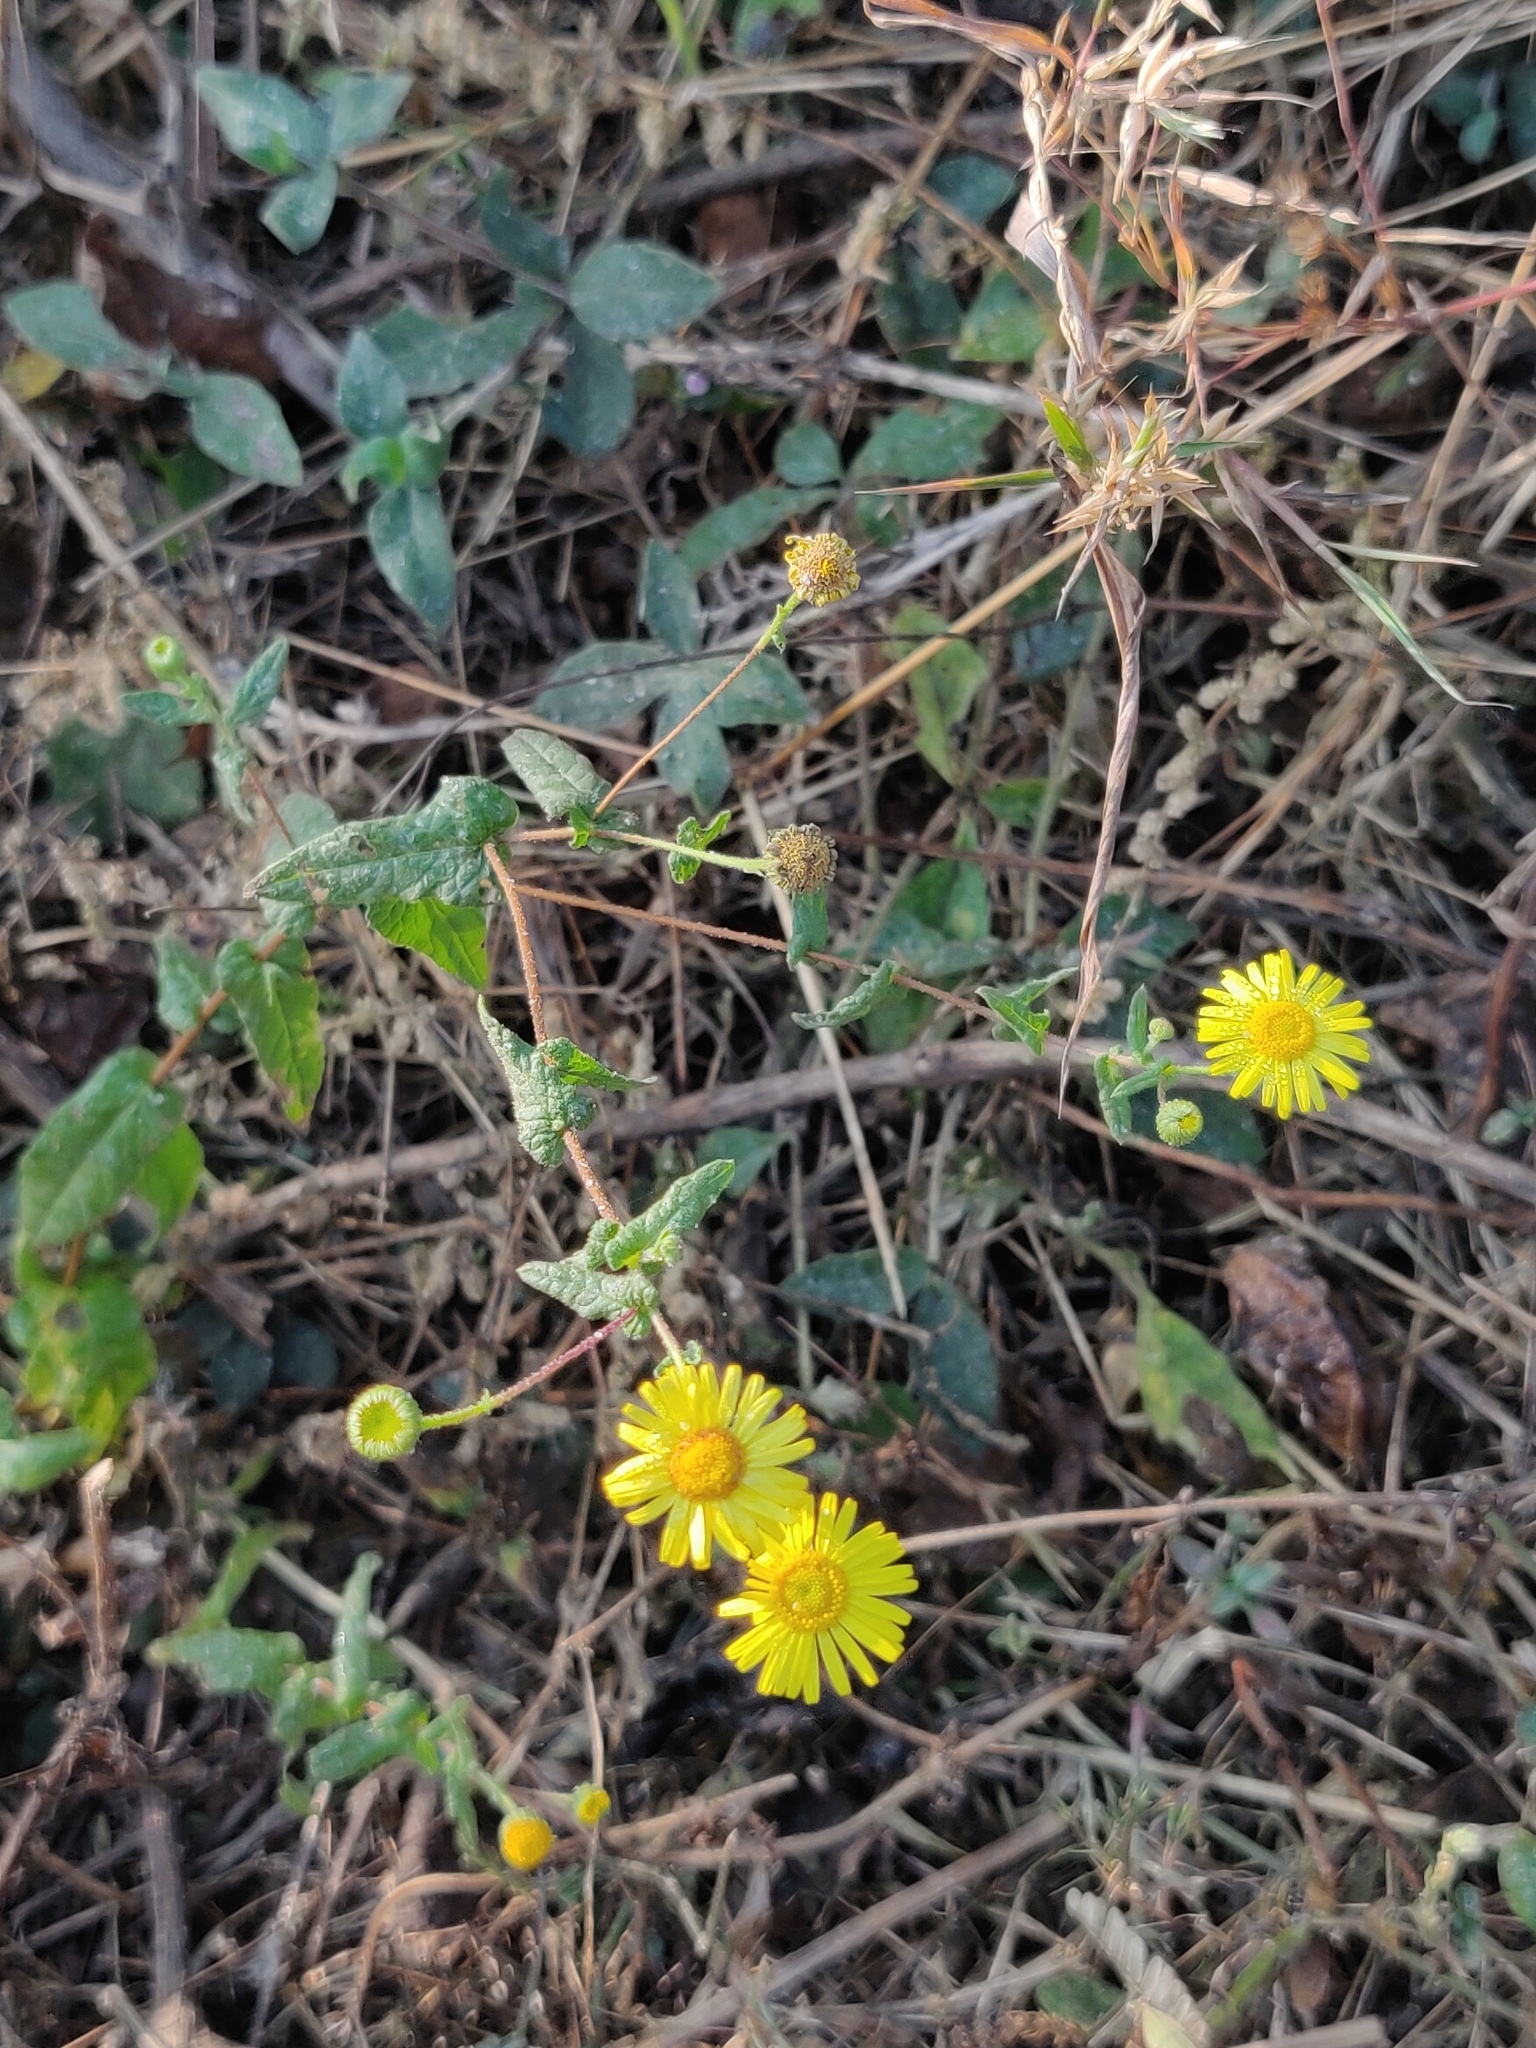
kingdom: Plantae
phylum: Tracheophyta
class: Magnoliopsida
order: Asterales
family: Asteraceae
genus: Vicoa
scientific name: Vicoa indica
